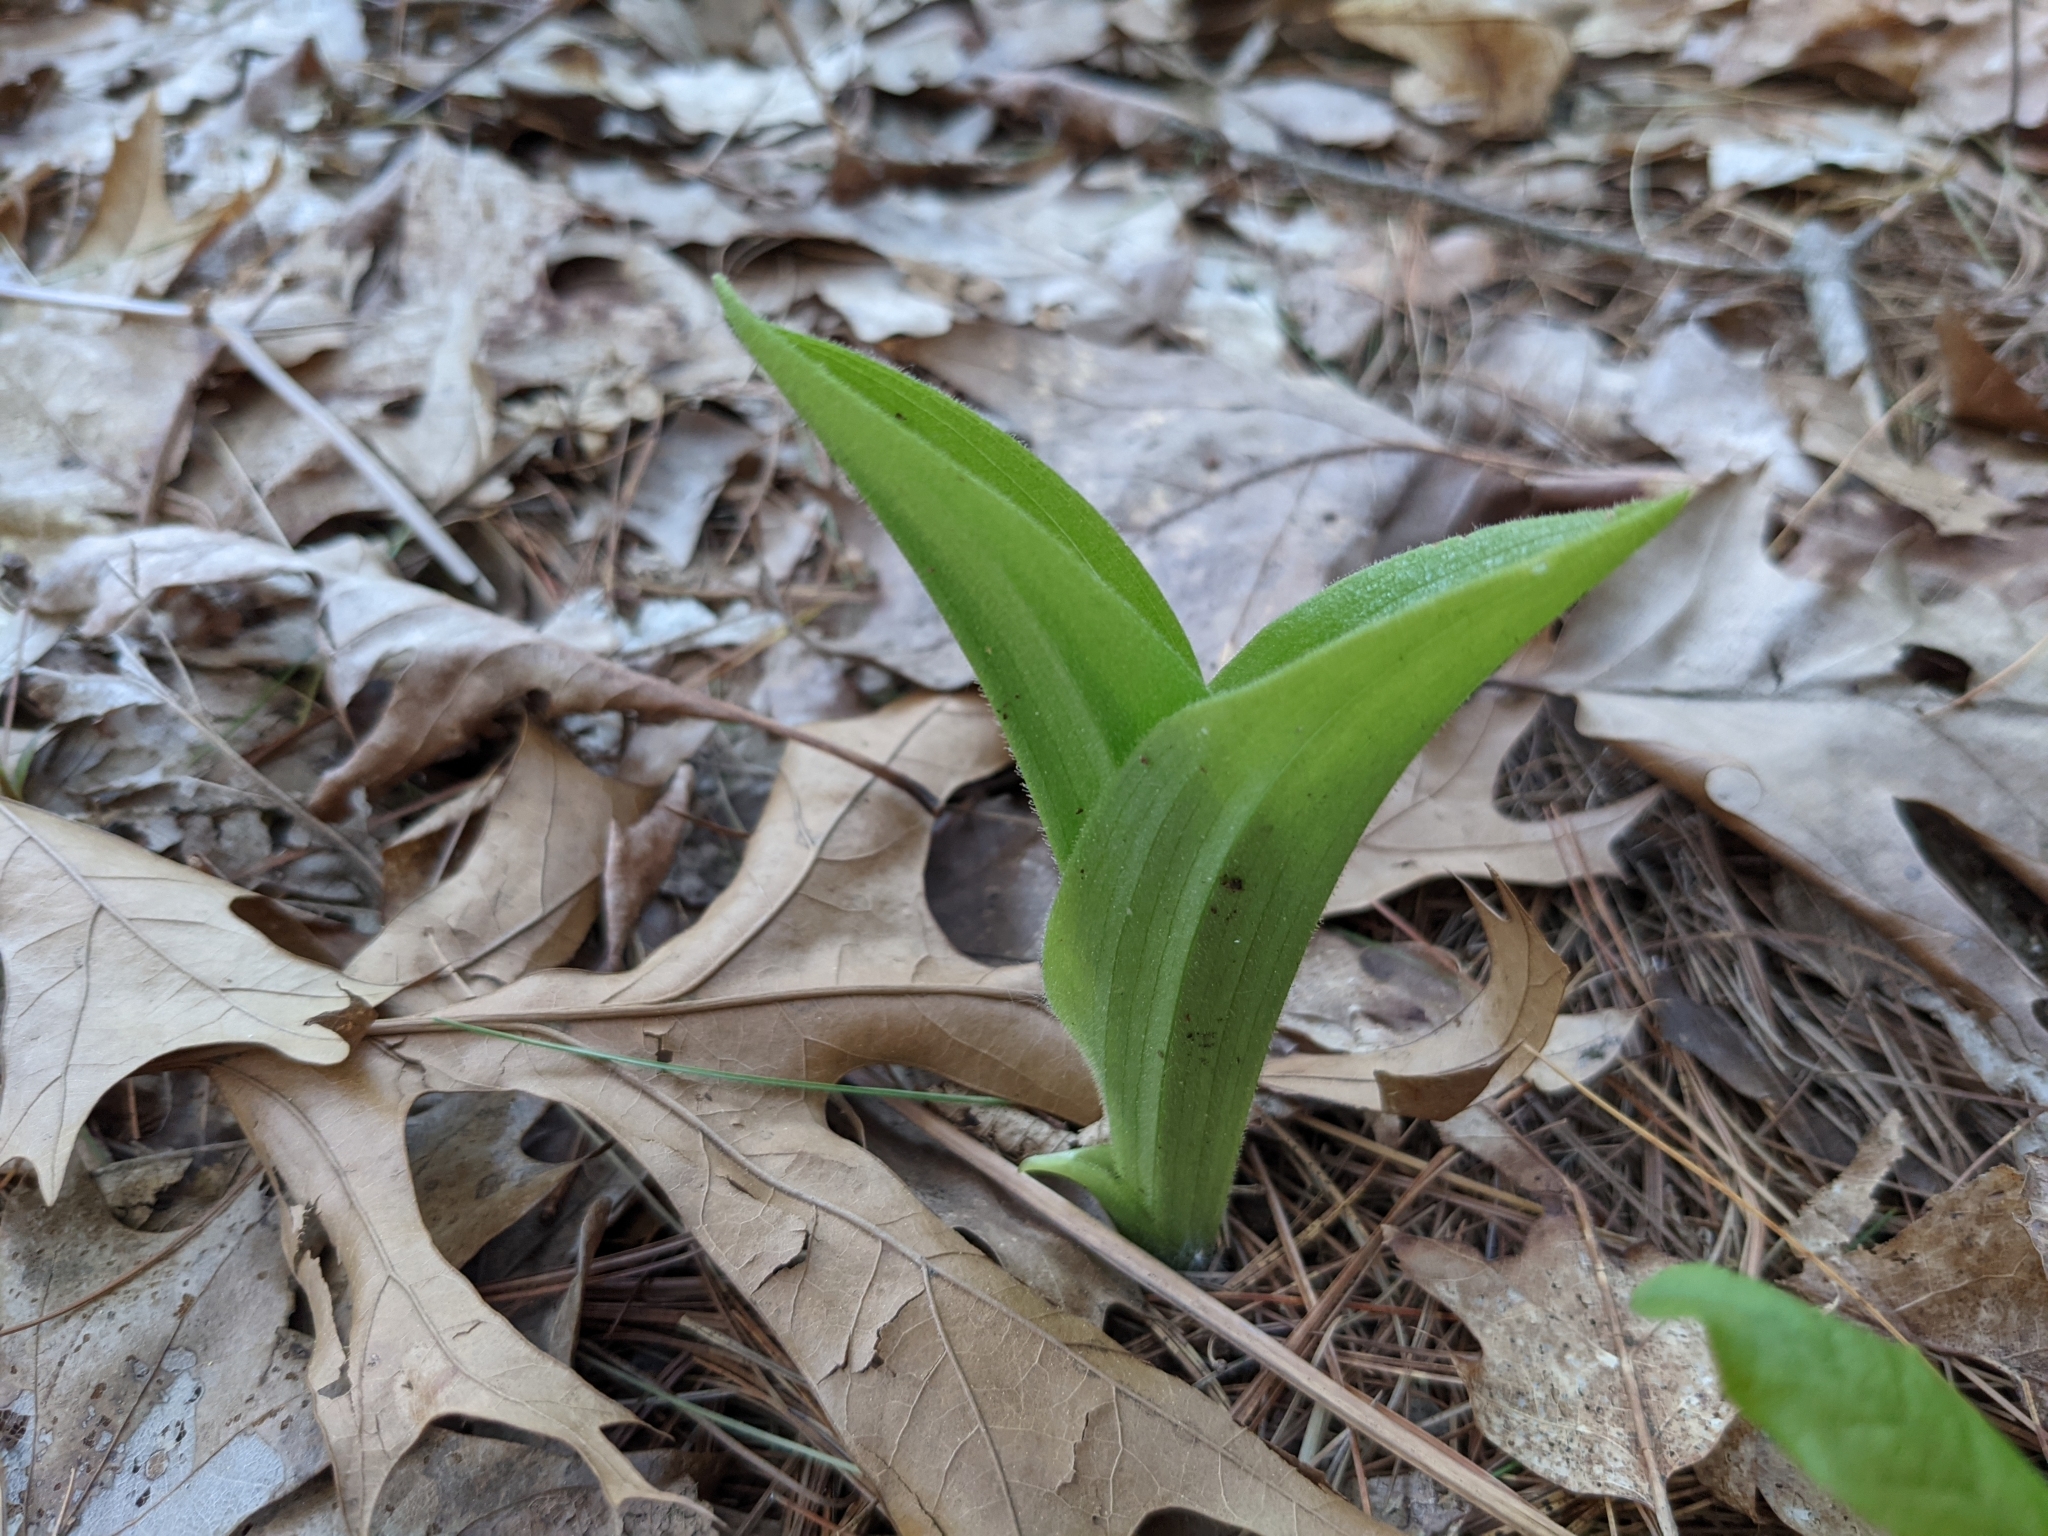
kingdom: Plantae
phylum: Tracheophyta
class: Liliopsida
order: Asparagales
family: Orchidaceae
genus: Cypripedium
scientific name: Cypripedium acaule
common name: Pink lady's-slipper
